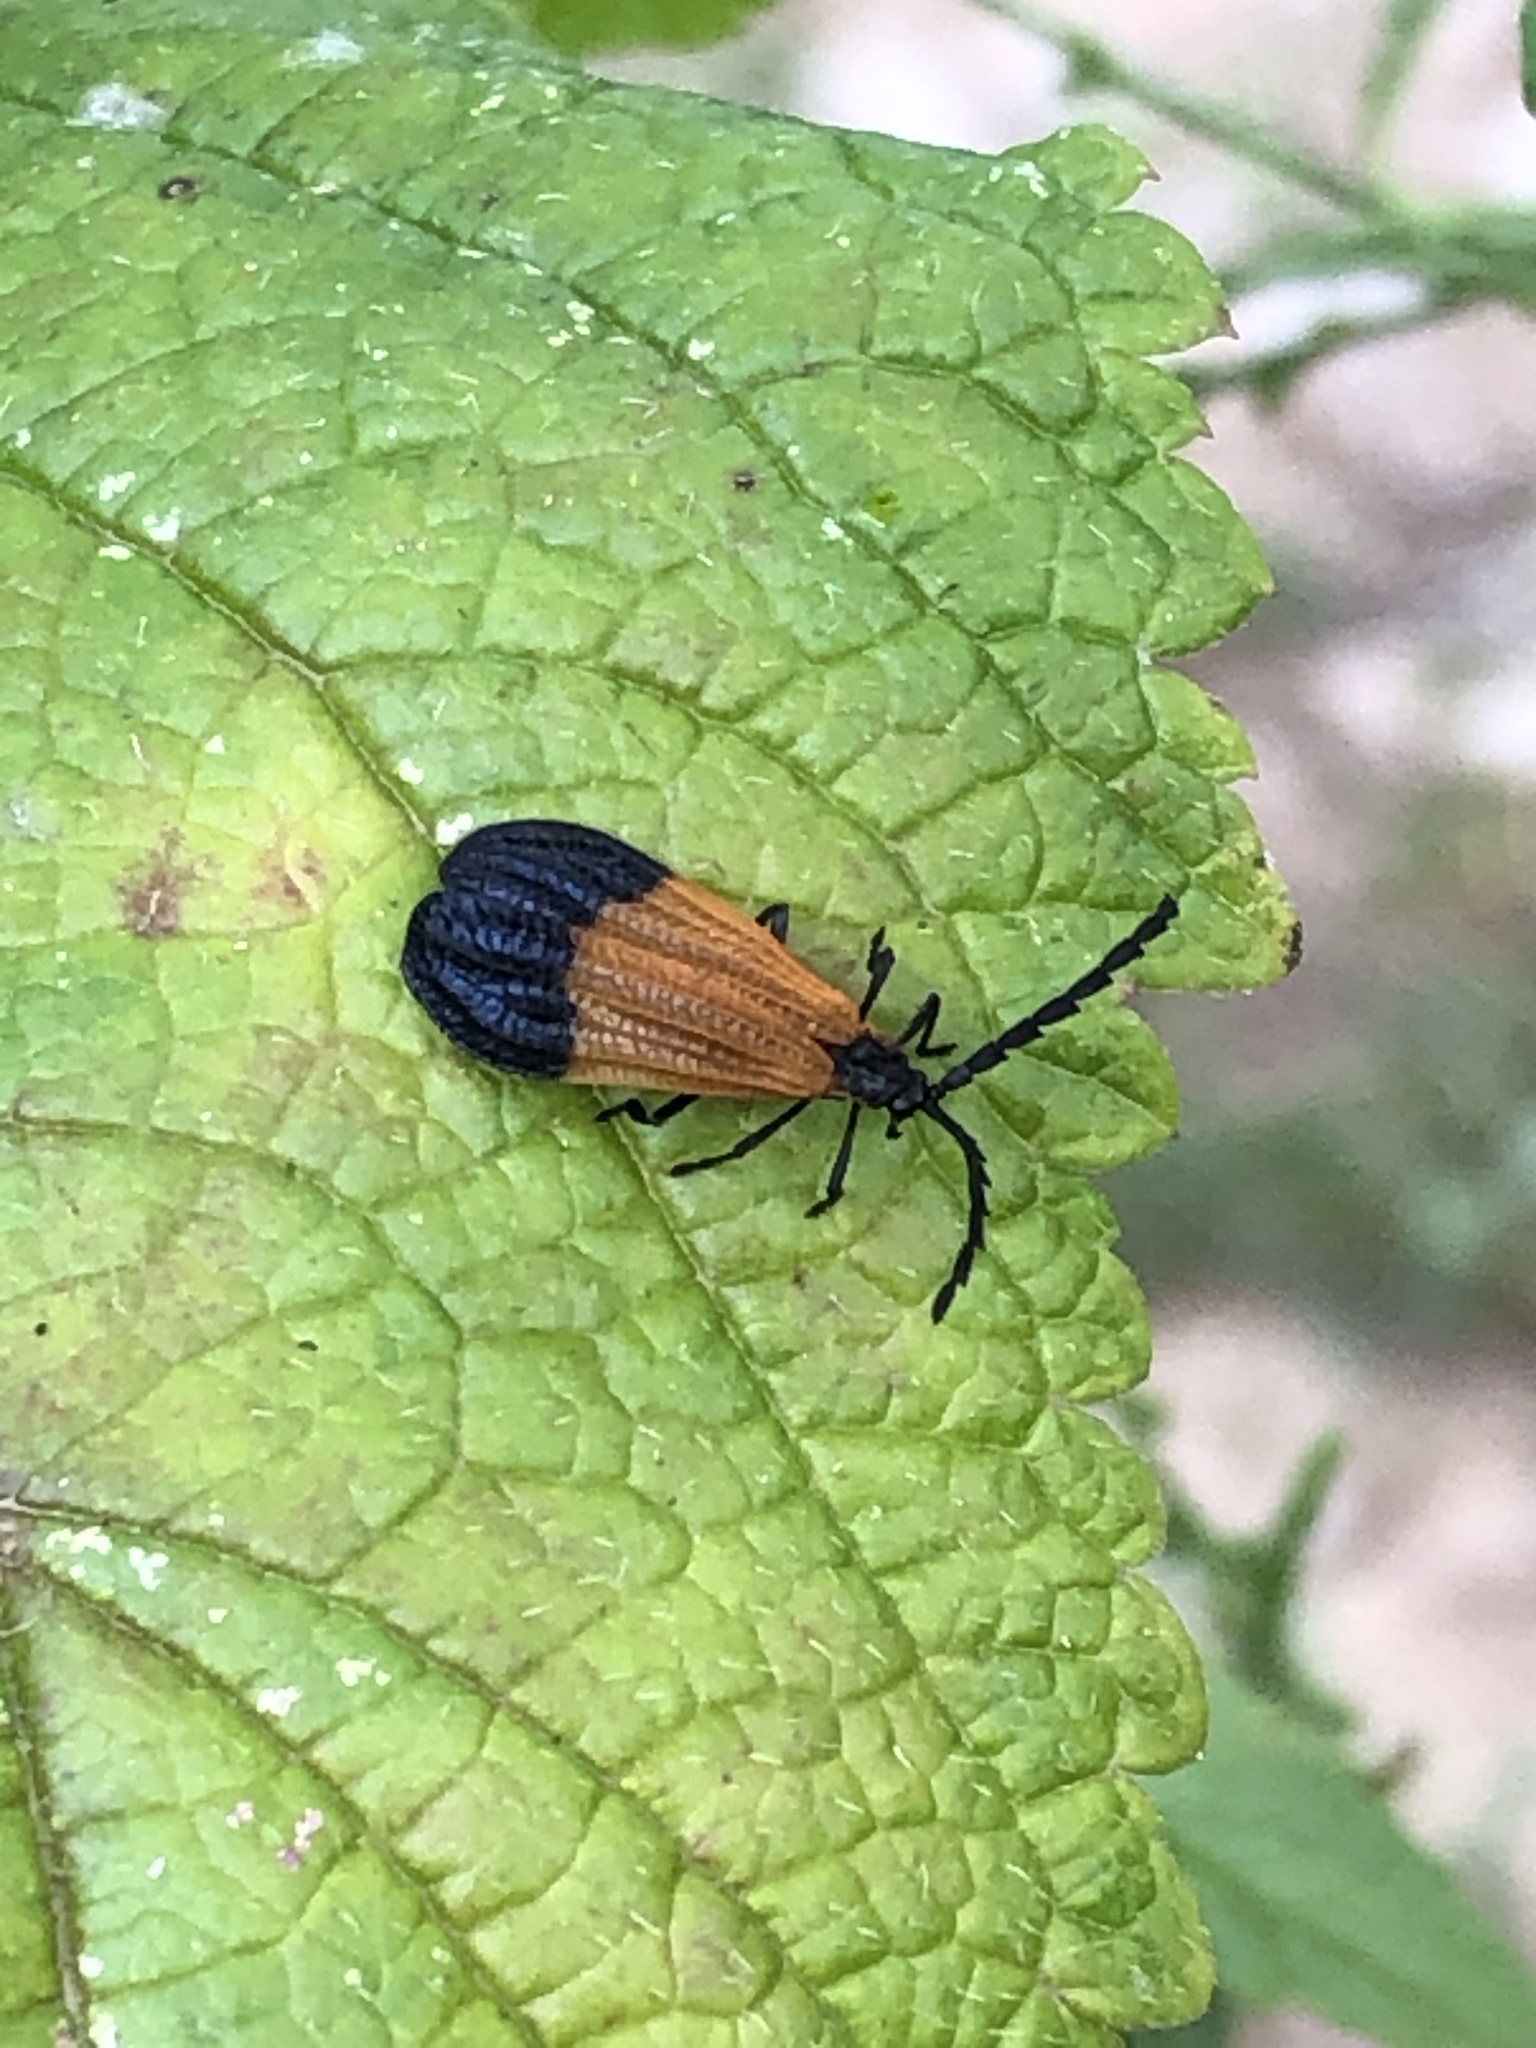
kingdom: Animalia
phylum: Arthropoda
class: Insecta
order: Coleoptera
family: Lycidae
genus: Calopteron
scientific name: Calopteron terminale
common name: End band net-winged beetle
